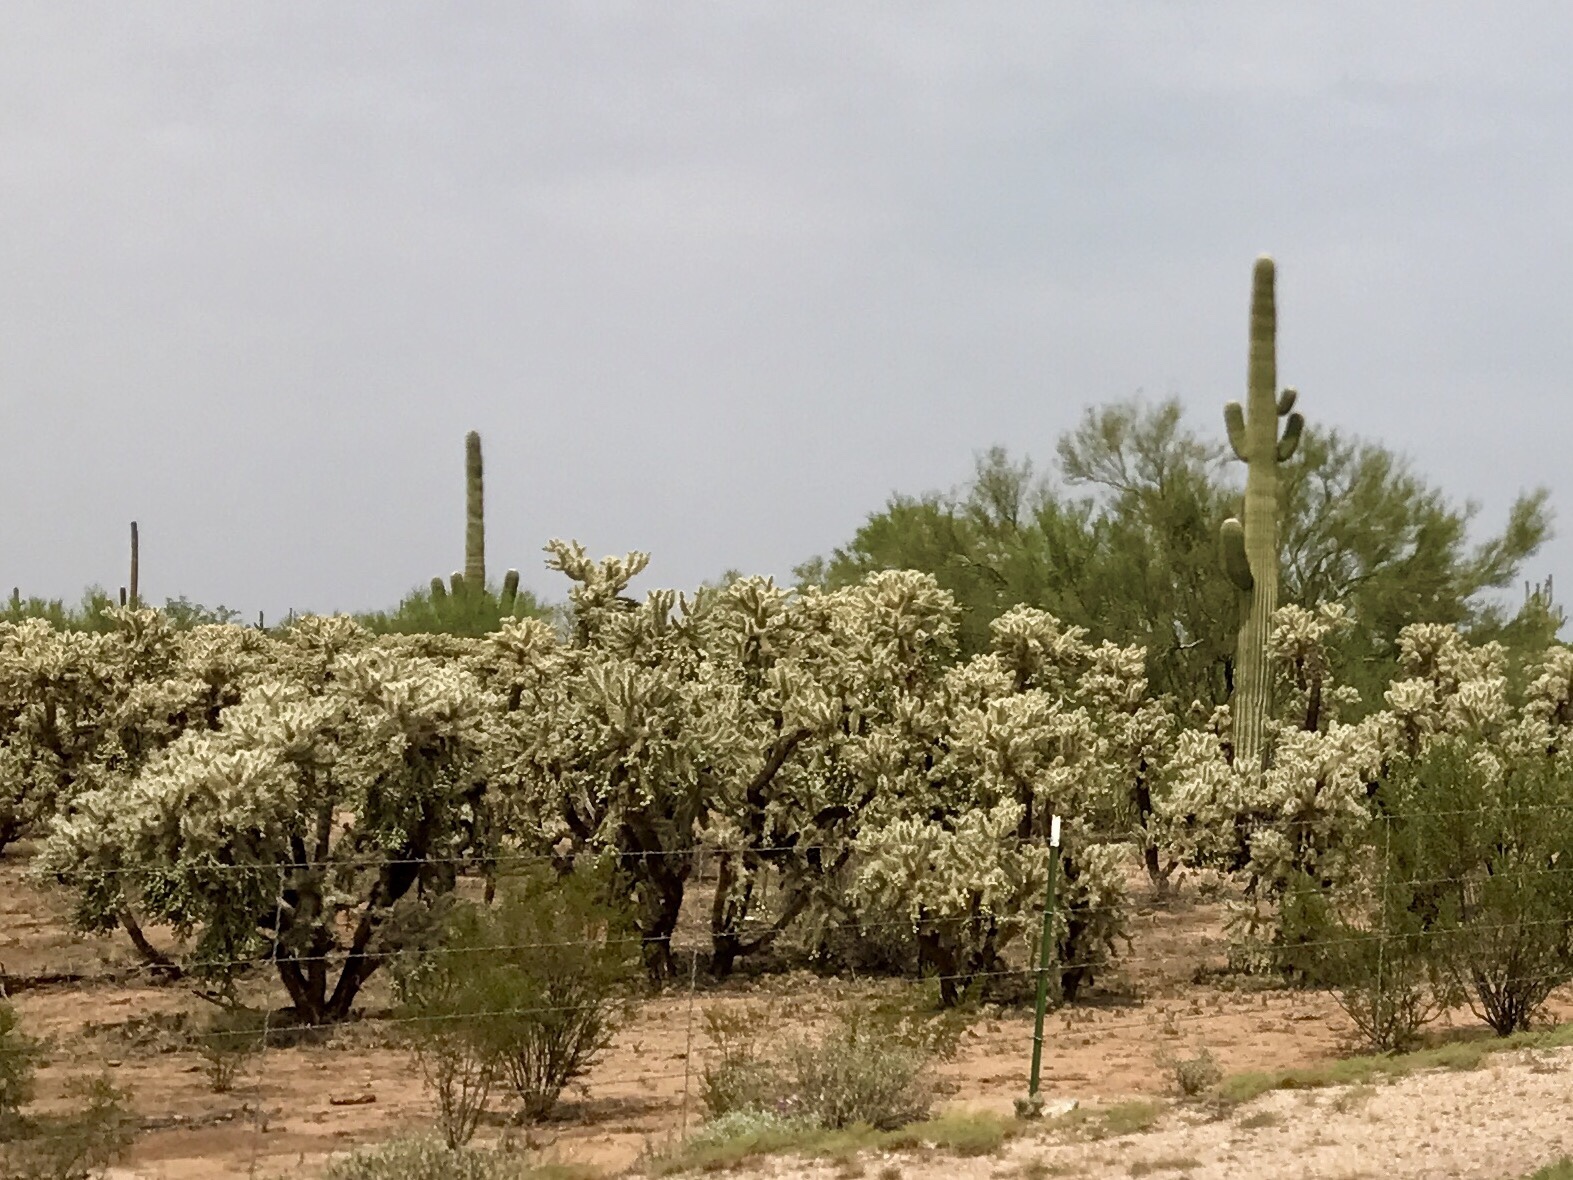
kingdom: Plantae
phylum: Tracheophyta
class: Magnoliopsida
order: Caryophyllales
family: Cactaceae
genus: Cylindropuntia
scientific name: Cylindropuntia fulgida
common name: Jumping cholla
